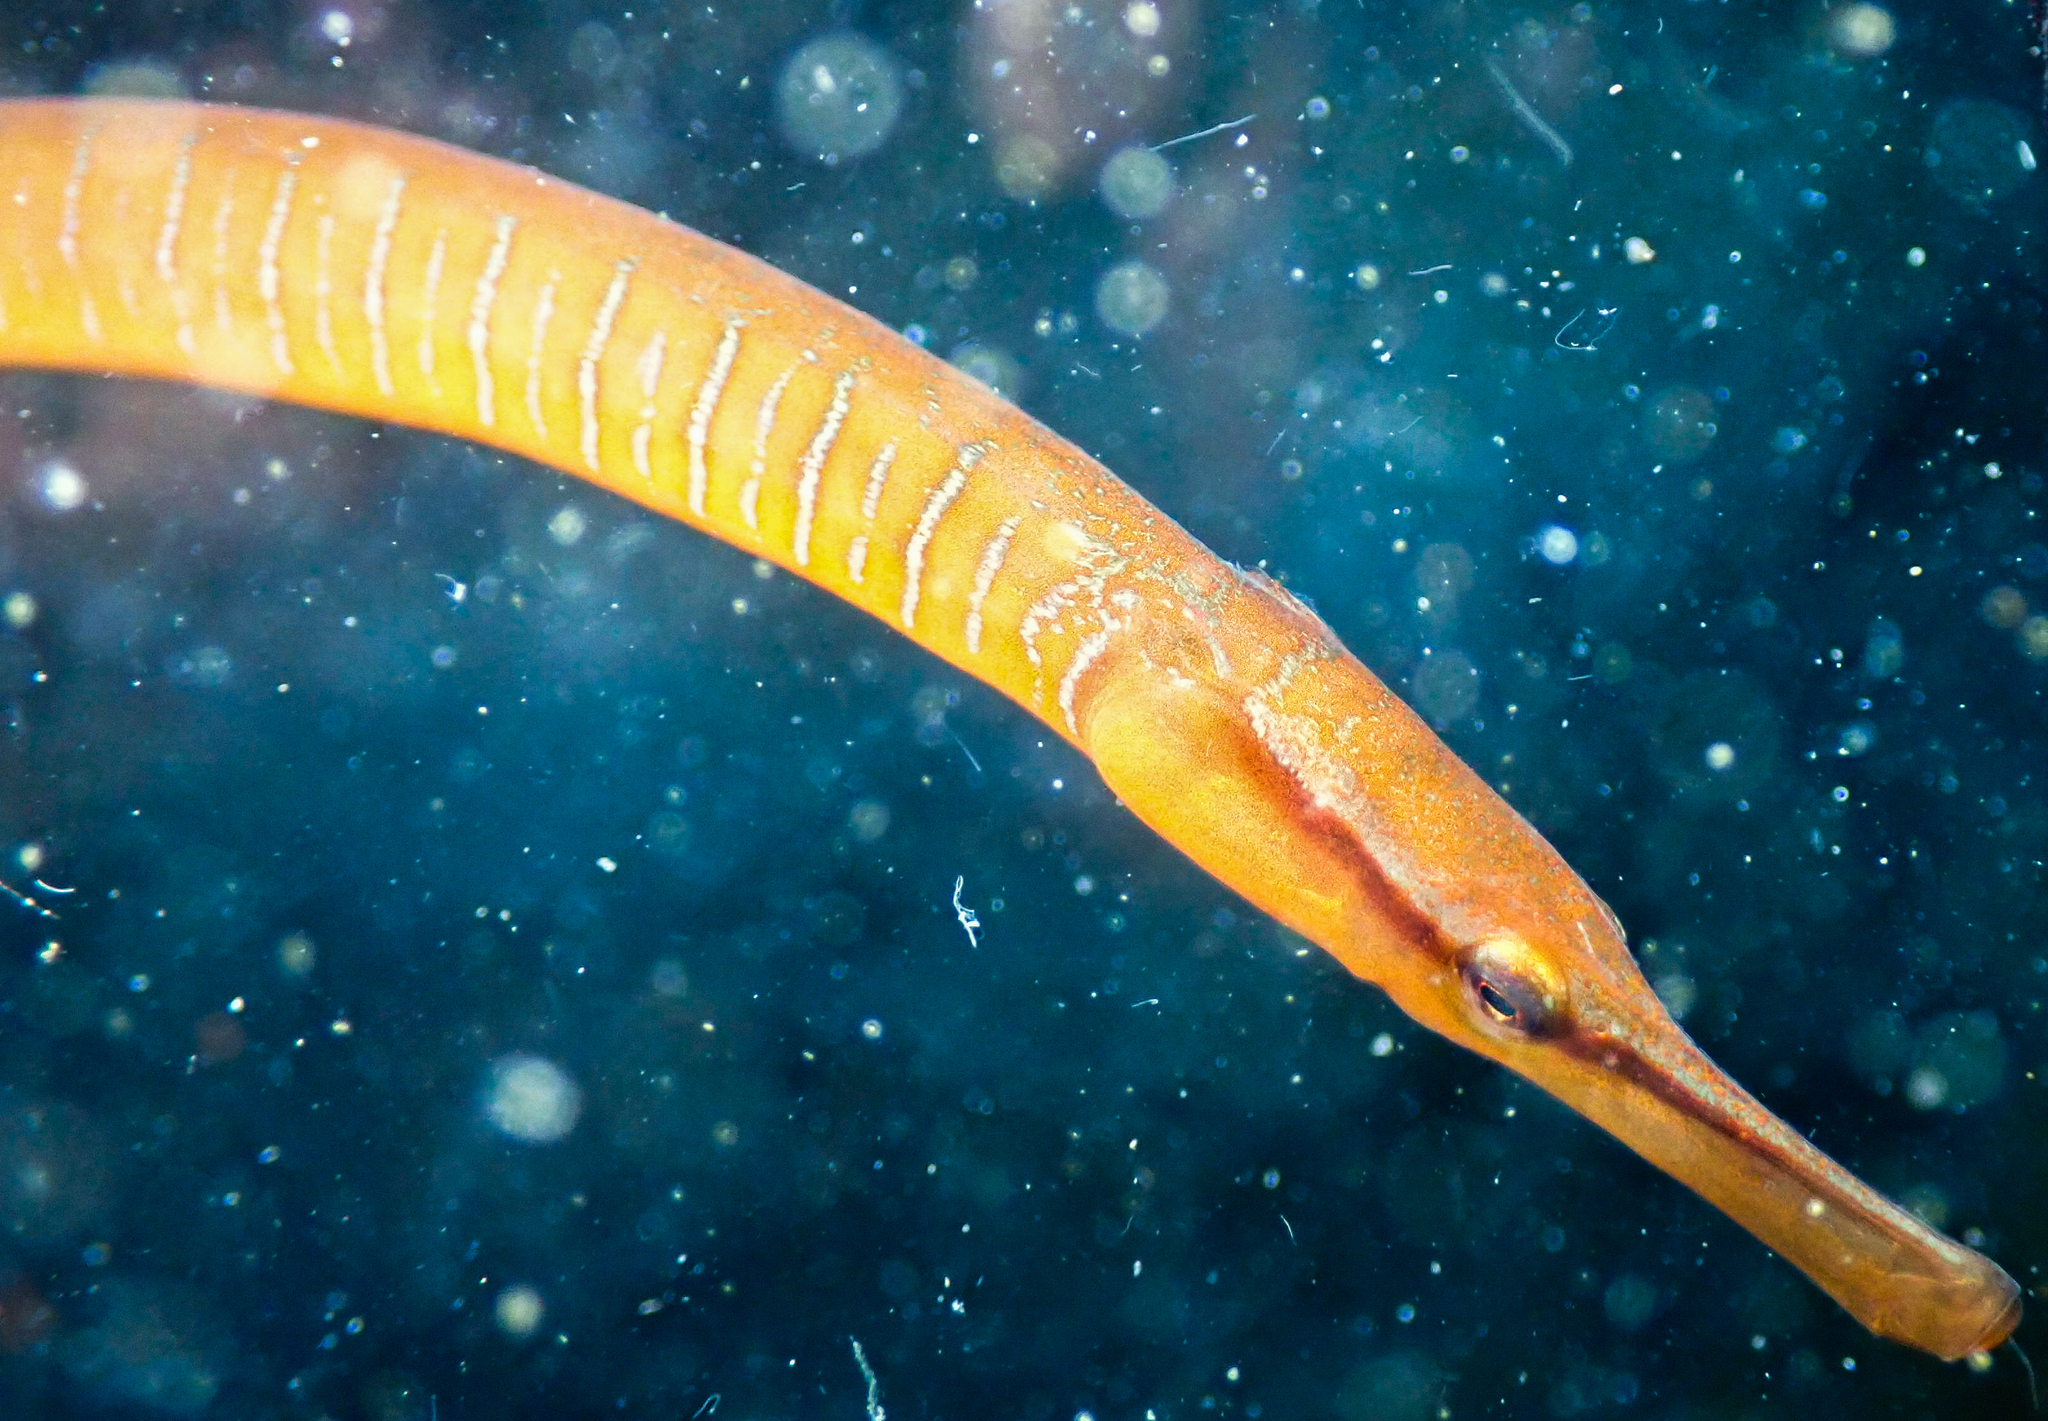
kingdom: Animalia
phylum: Chordata
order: Syngnathiformes
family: Syngnathidae
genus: Entelurus
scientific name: Entelurus aequoreus
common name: Snake pipefish
